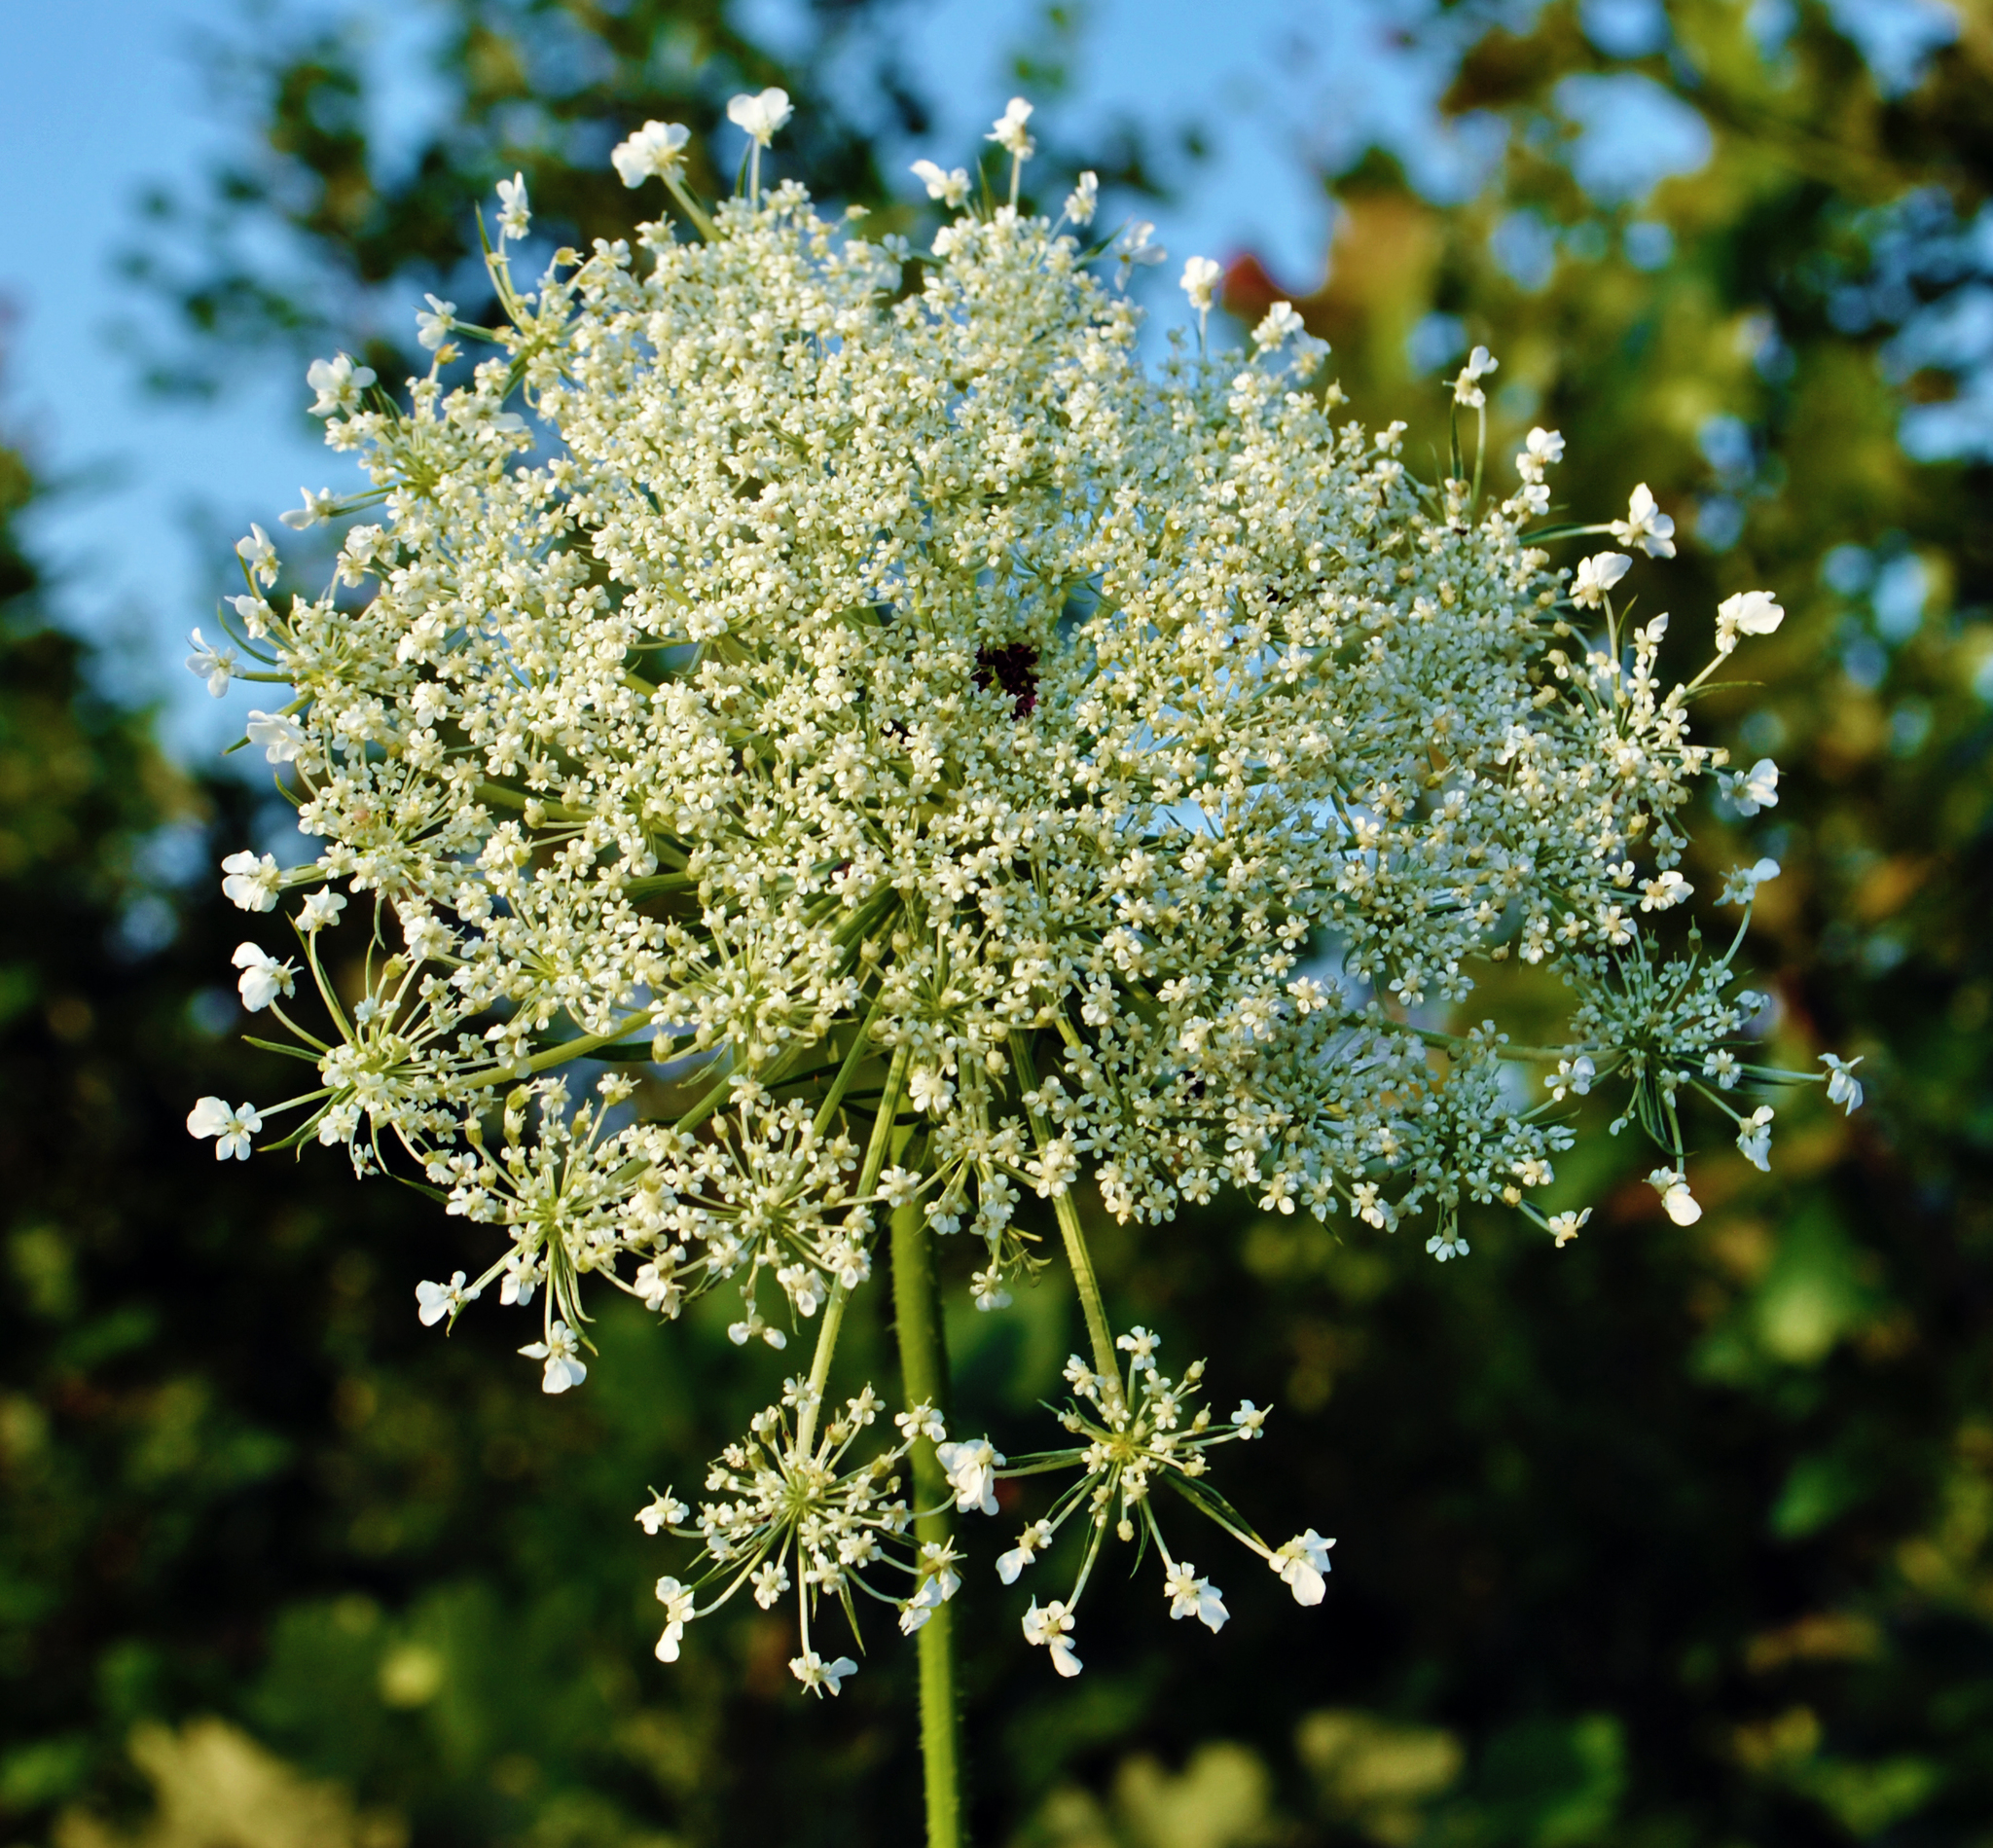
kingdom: Plantae
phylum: Tracheophyta
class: Magnoliopsida
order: Apiales
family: Apiaceae
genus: Daucus
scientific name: Daucus carota
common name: Wild carrot
